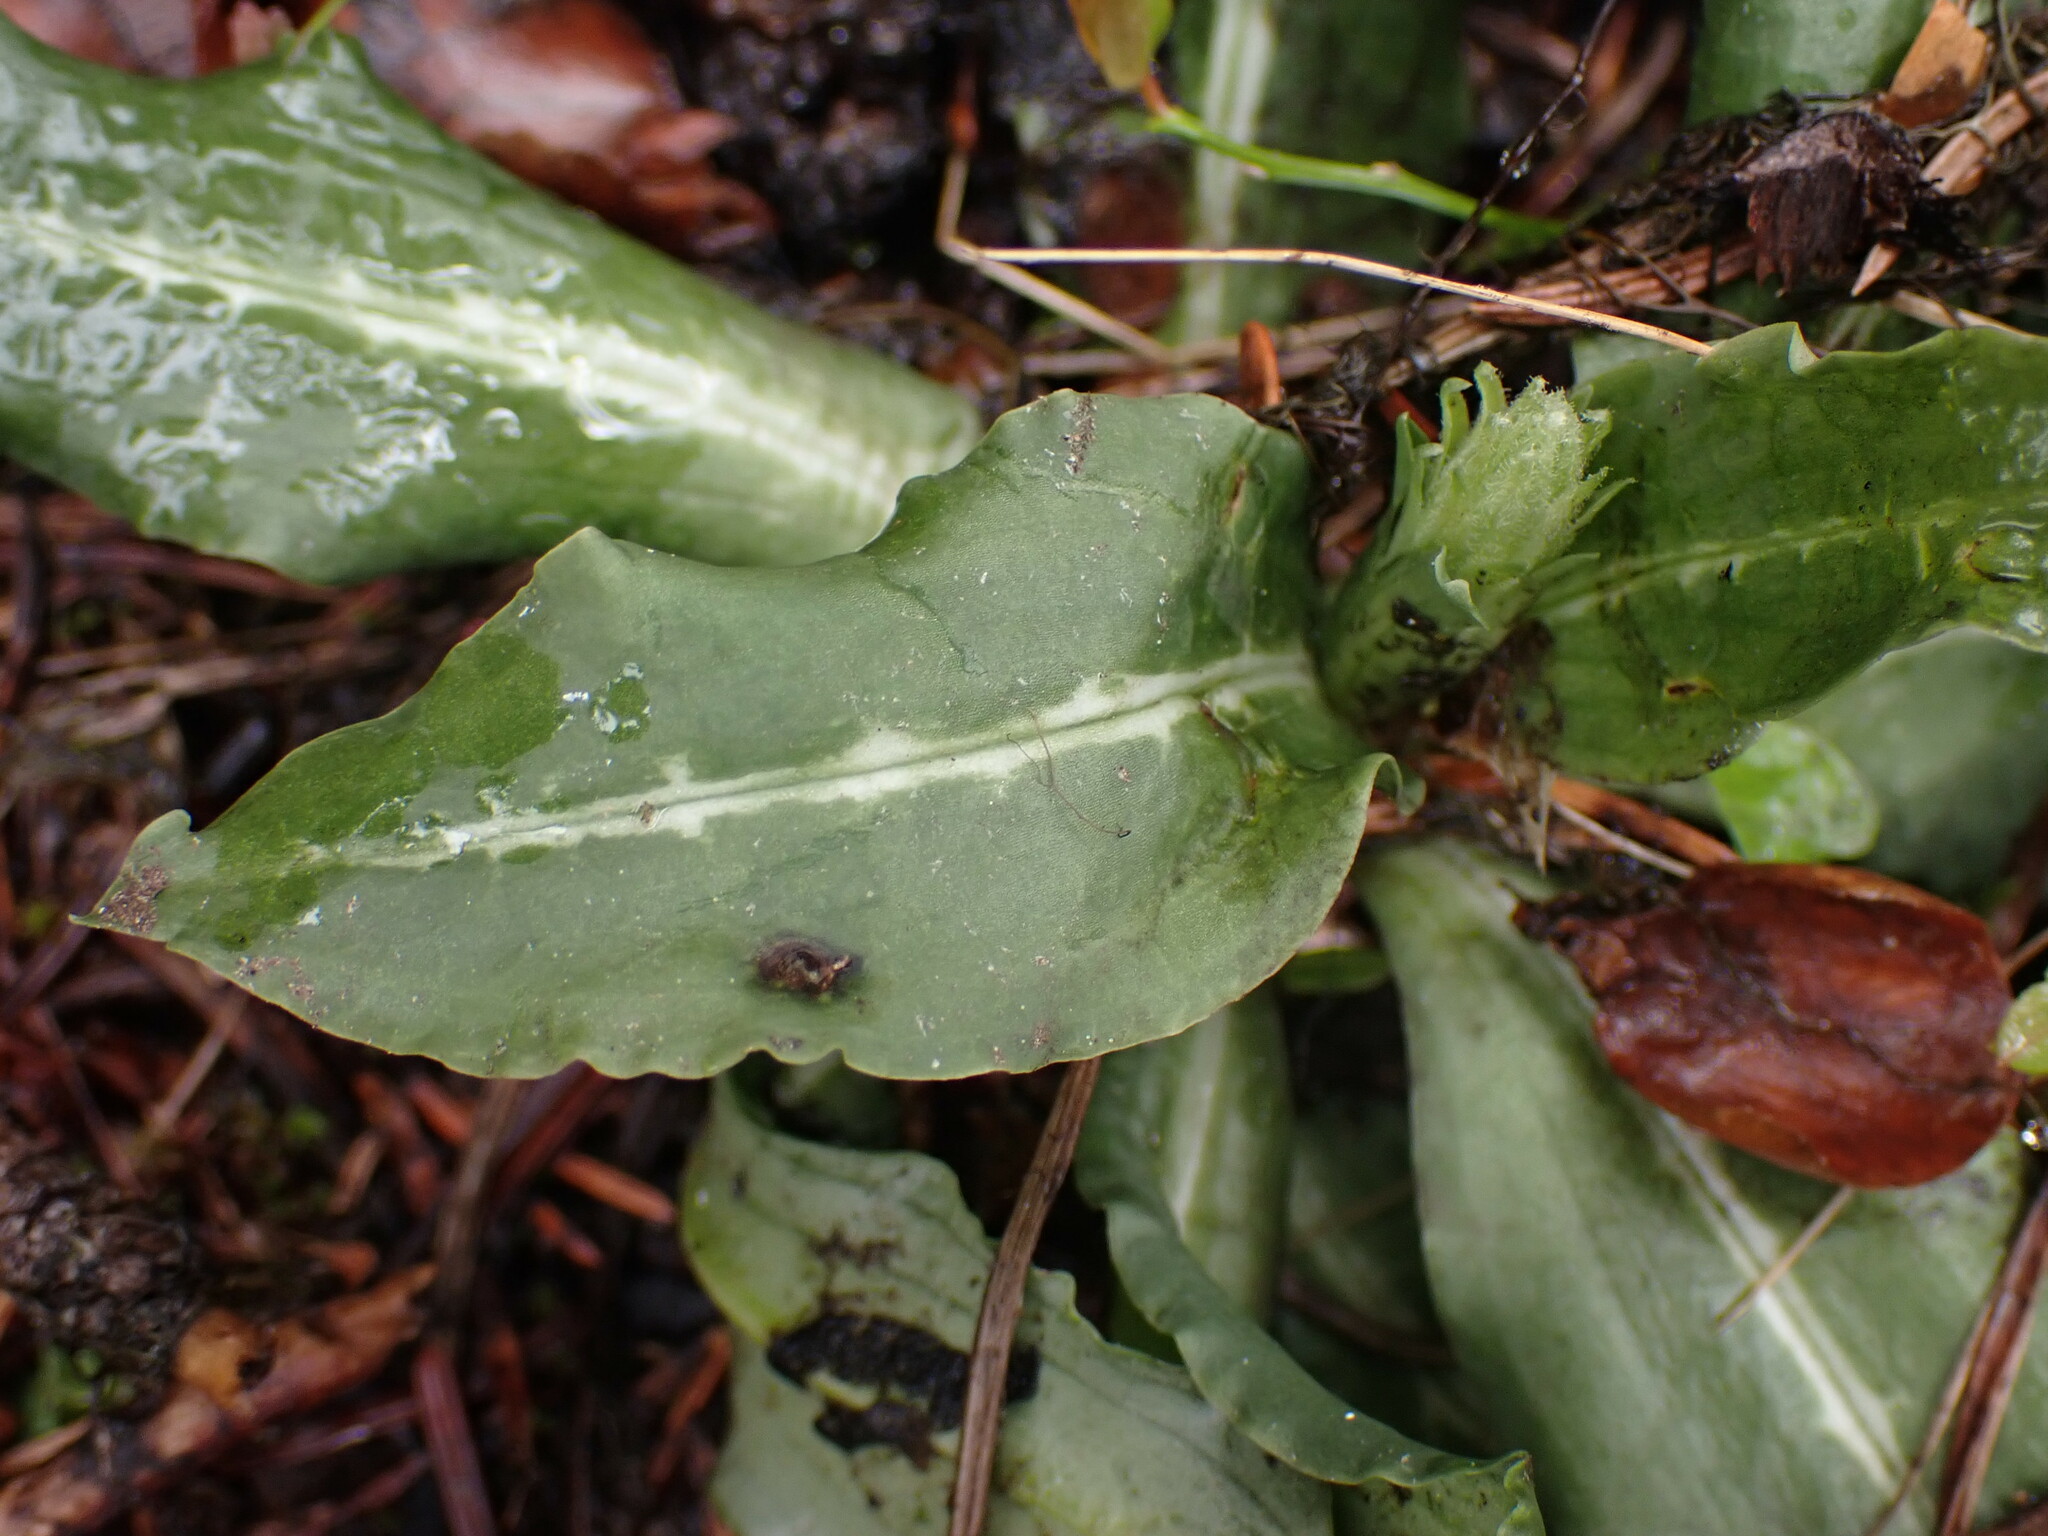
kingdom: Plantae
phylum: Tracheophyta
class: Liliopsida
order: Asparagales
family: Orchidaceae
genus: Goodyera
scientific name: Goodyera oblongifolia
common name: Giant rattlesnake-plantain
